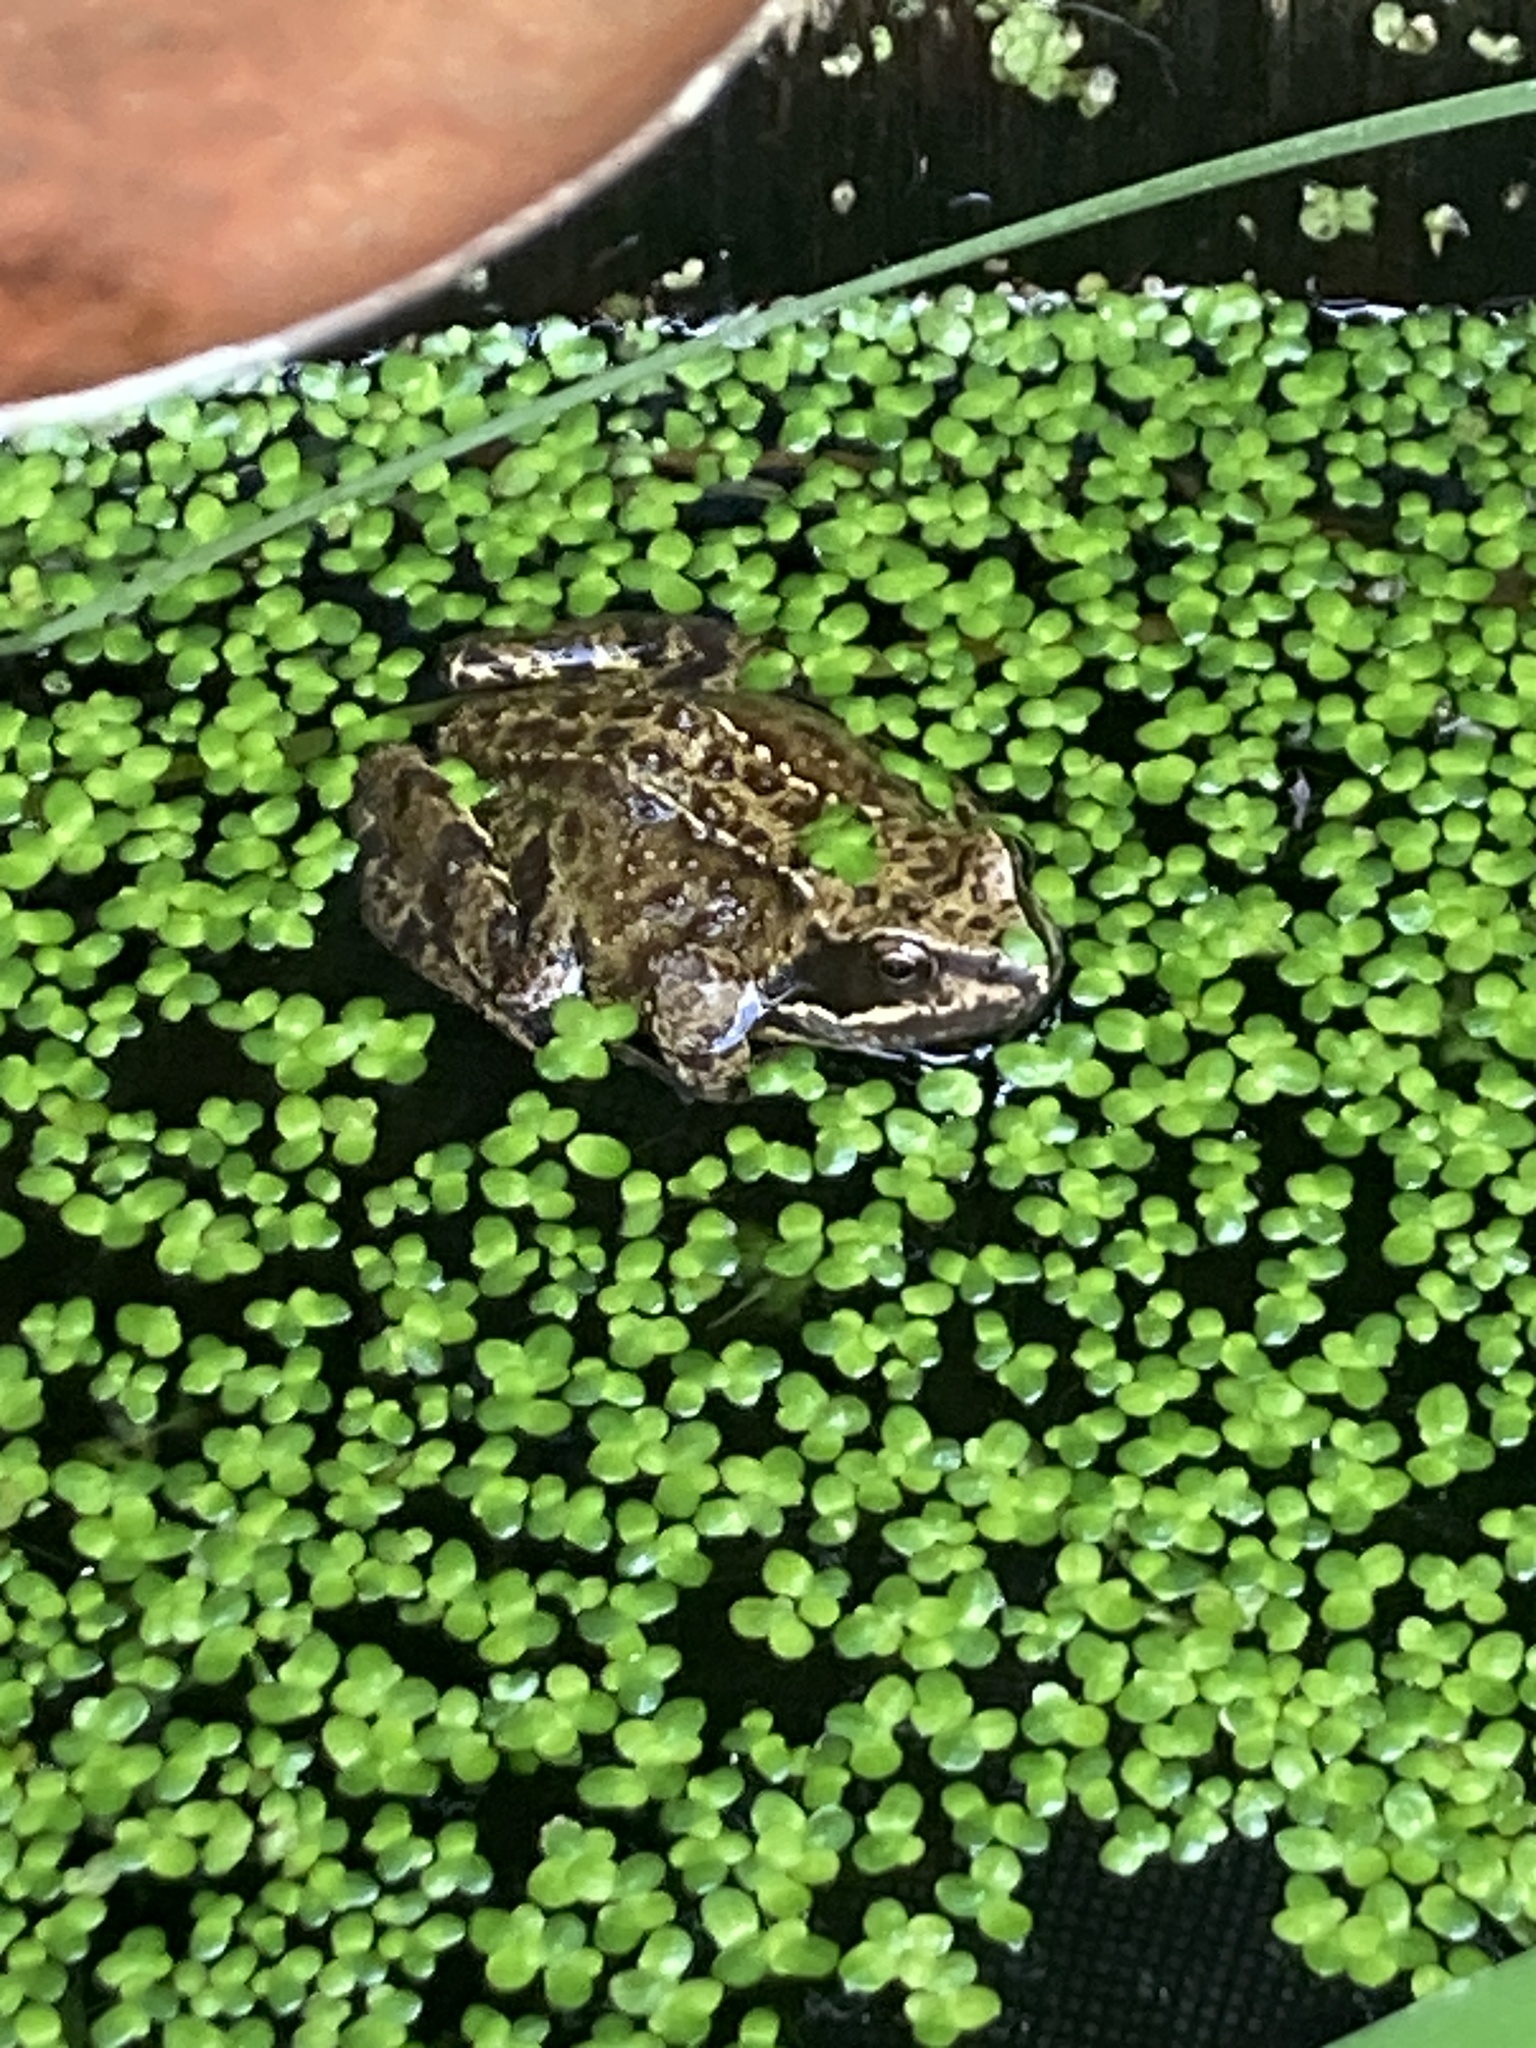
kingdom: Animalia
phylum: Chordata
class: Amphibia
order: Anura
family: Ranidae
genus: Rana
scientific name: Rana temporaria
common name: Common frog
